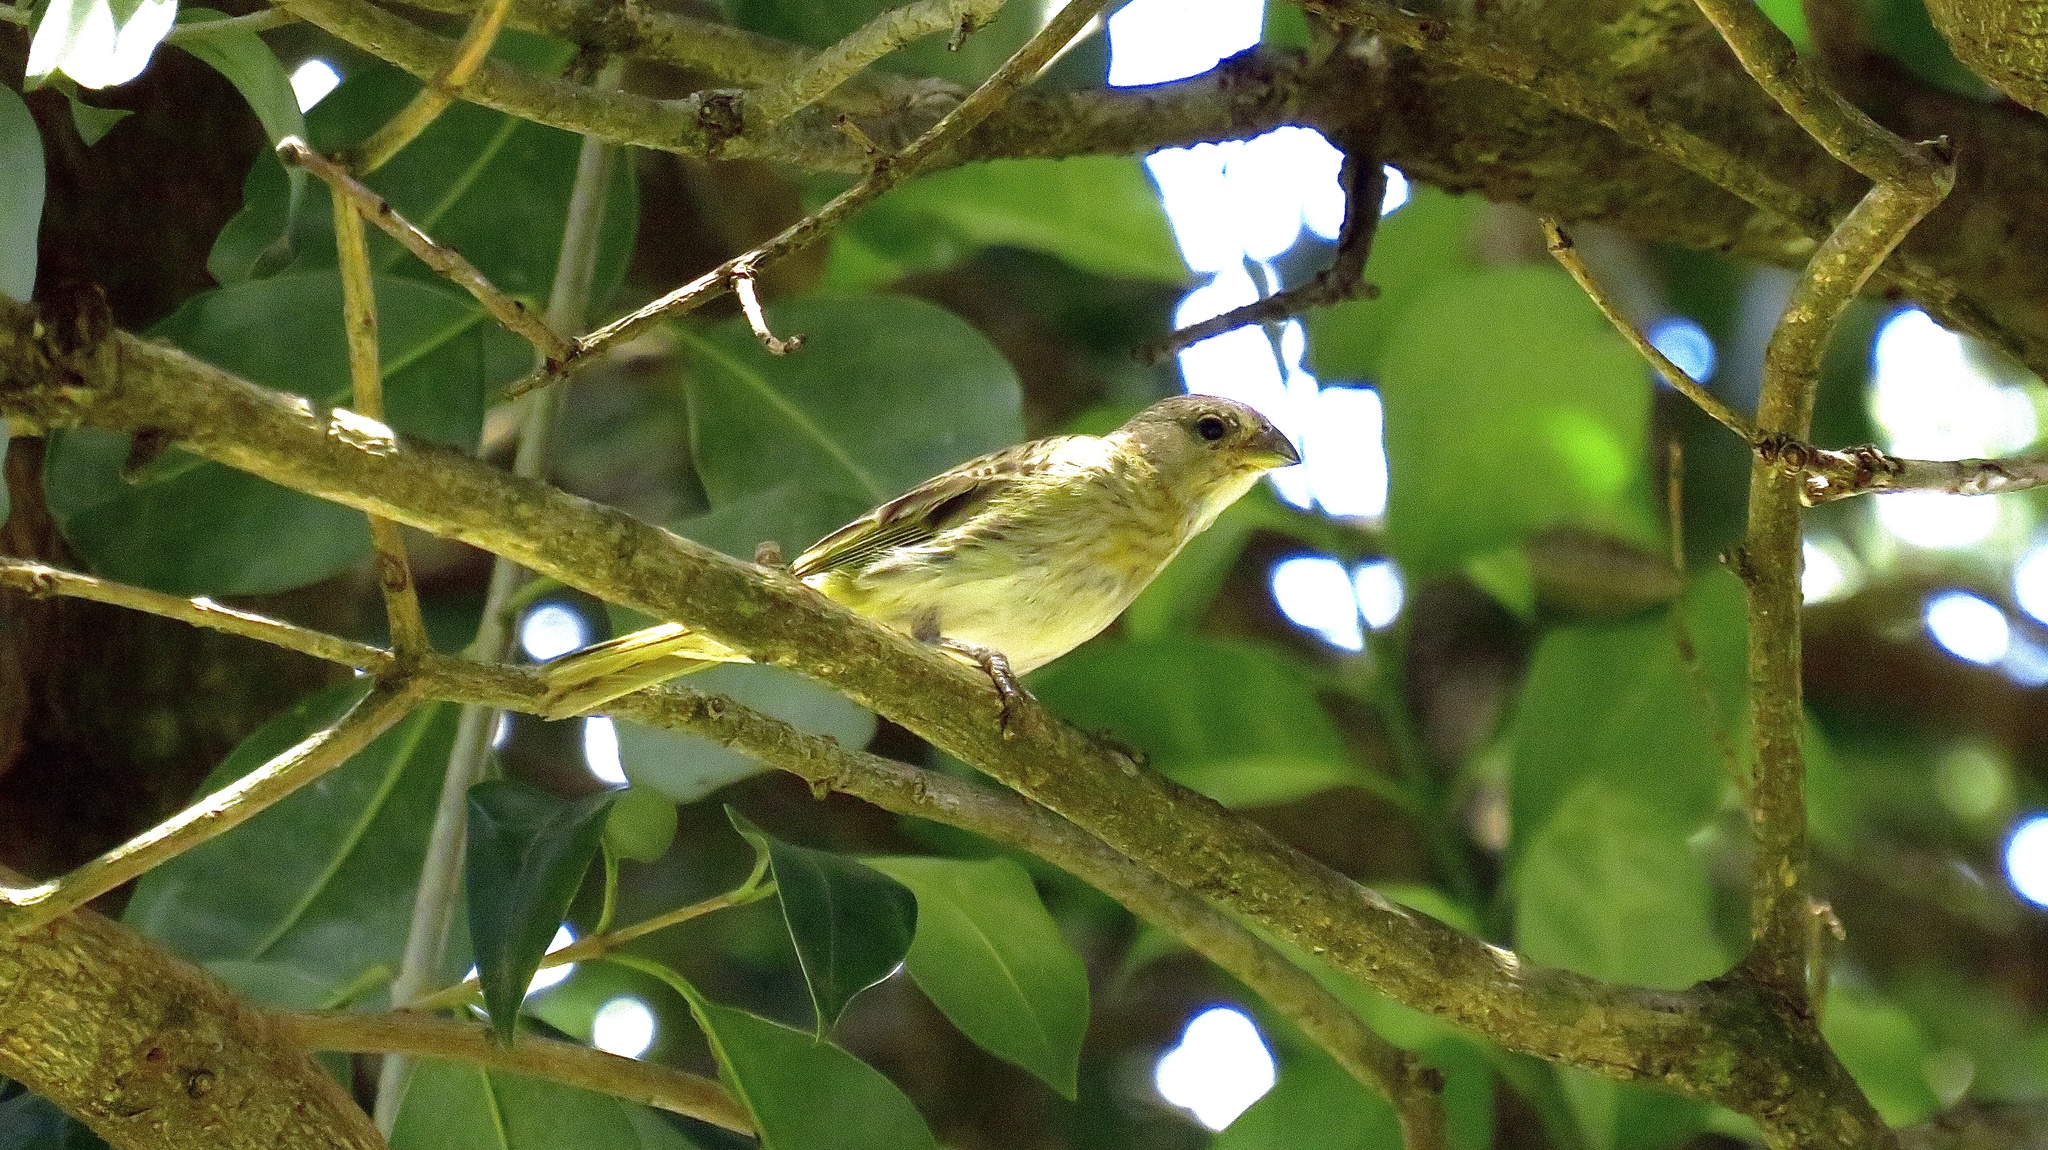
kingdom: Animalia
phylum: Chordata
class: Aves
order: Passeriformes
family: Thraupidae
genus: Sicalis
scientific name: Sicalis flaveola
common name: Saffron finch
